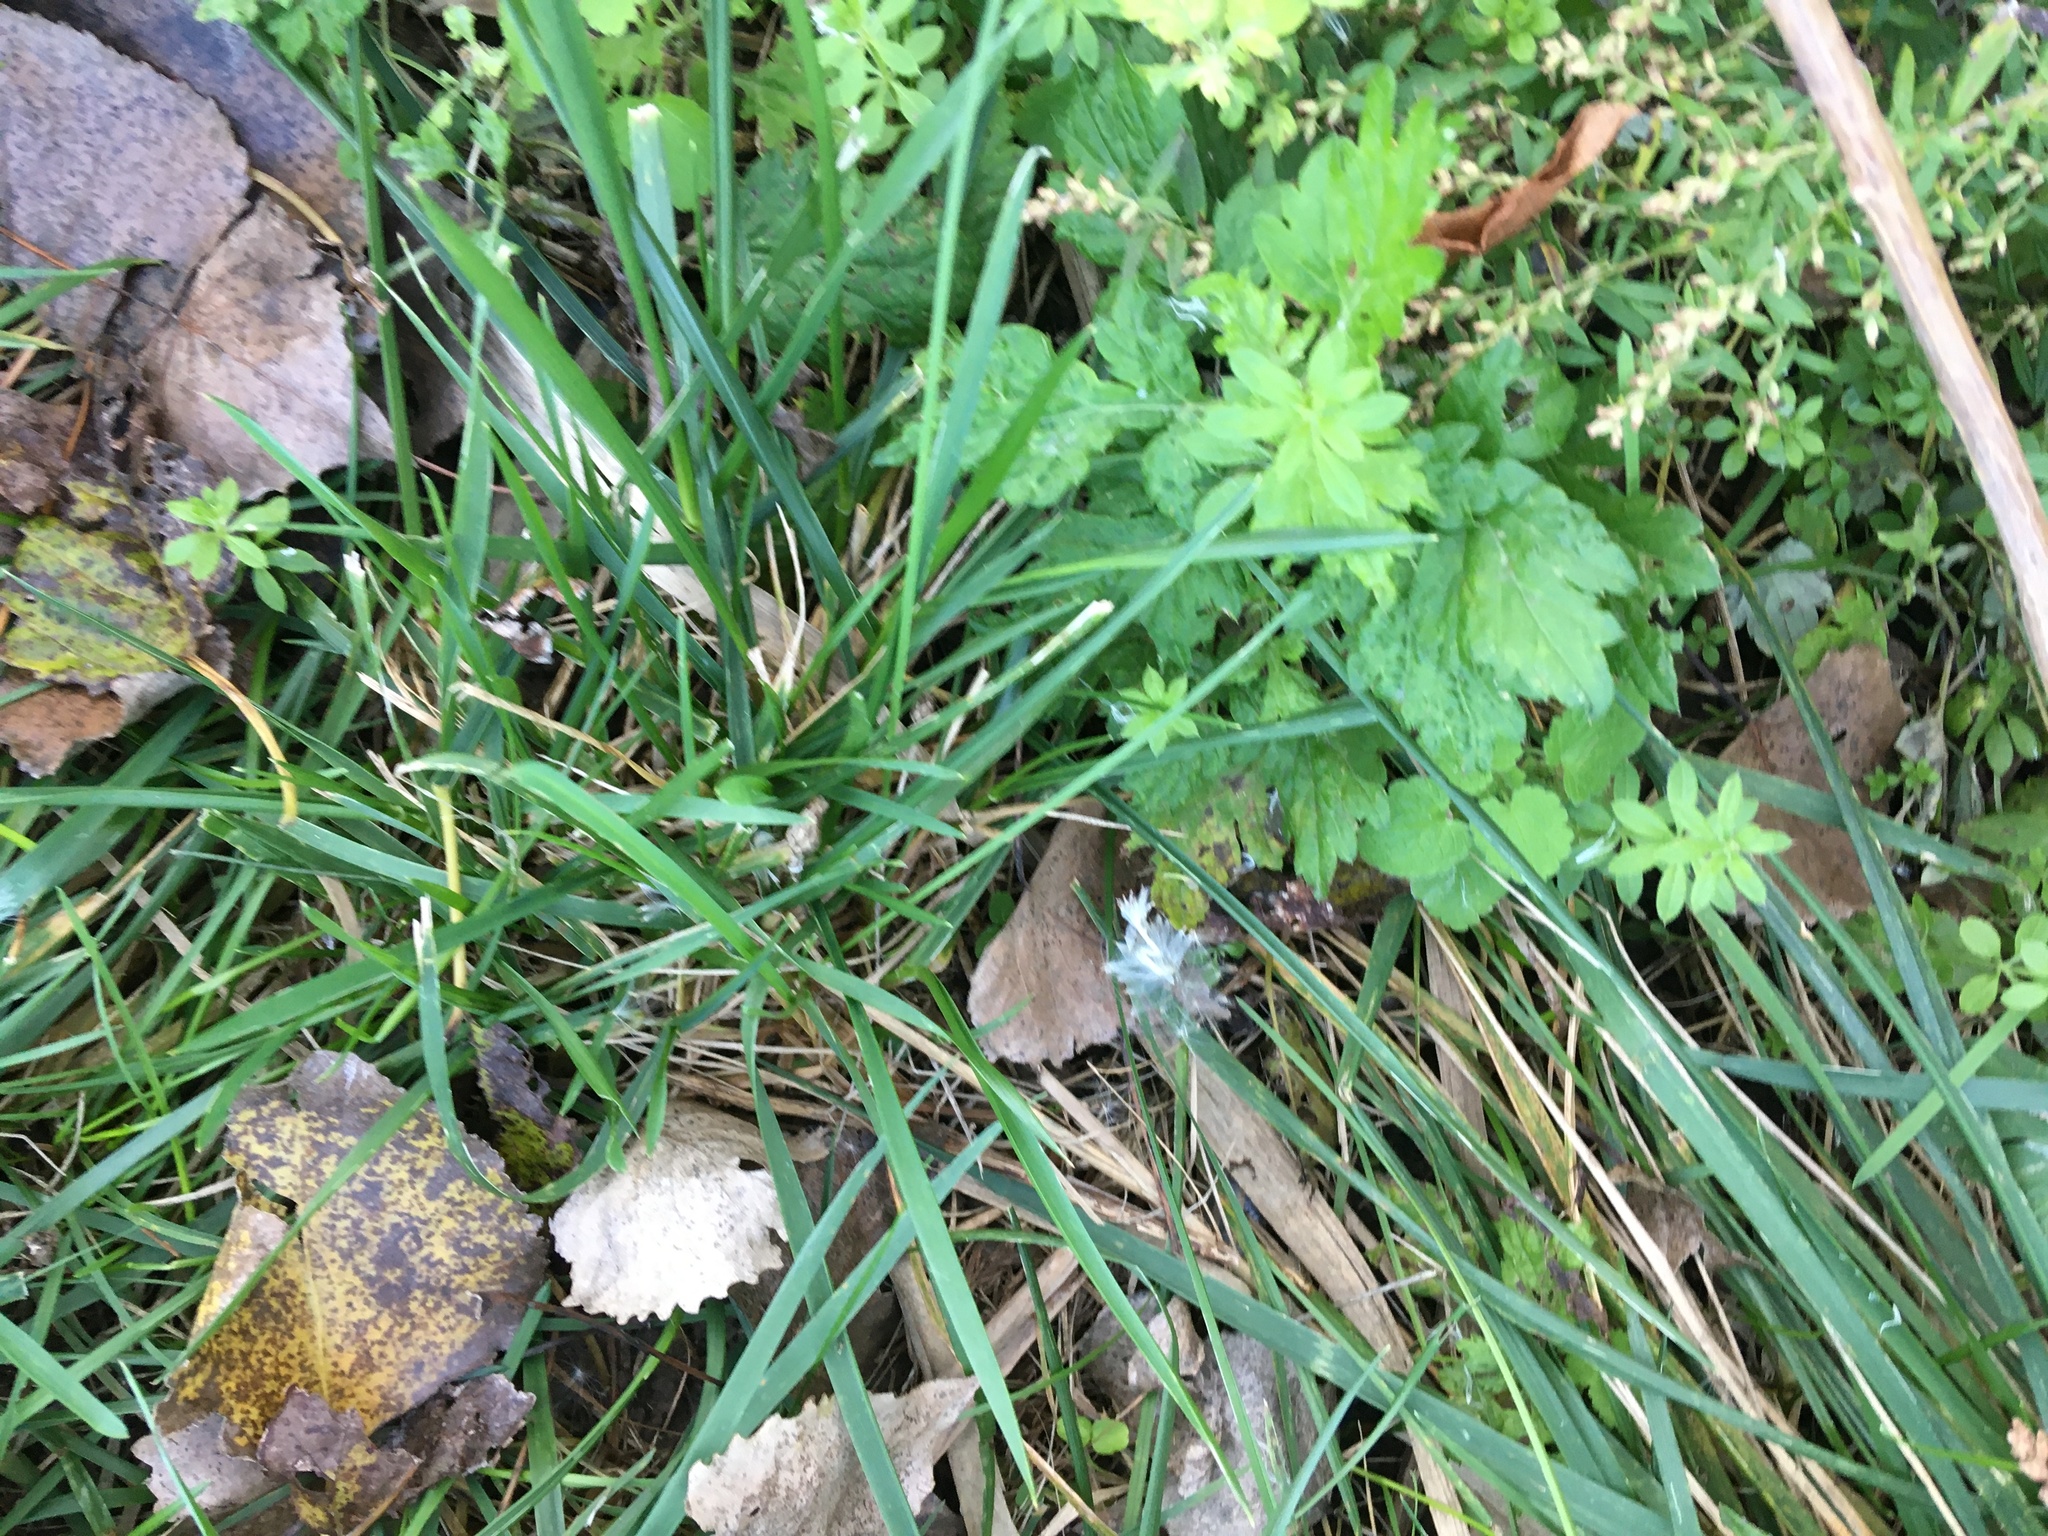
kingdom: Plantae
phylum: Tracheophyta
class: Magnoliopsida
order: Asterales
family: Asteraceae
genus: Artemisia
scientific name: Artemisia vulgaris
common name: Mugwort
